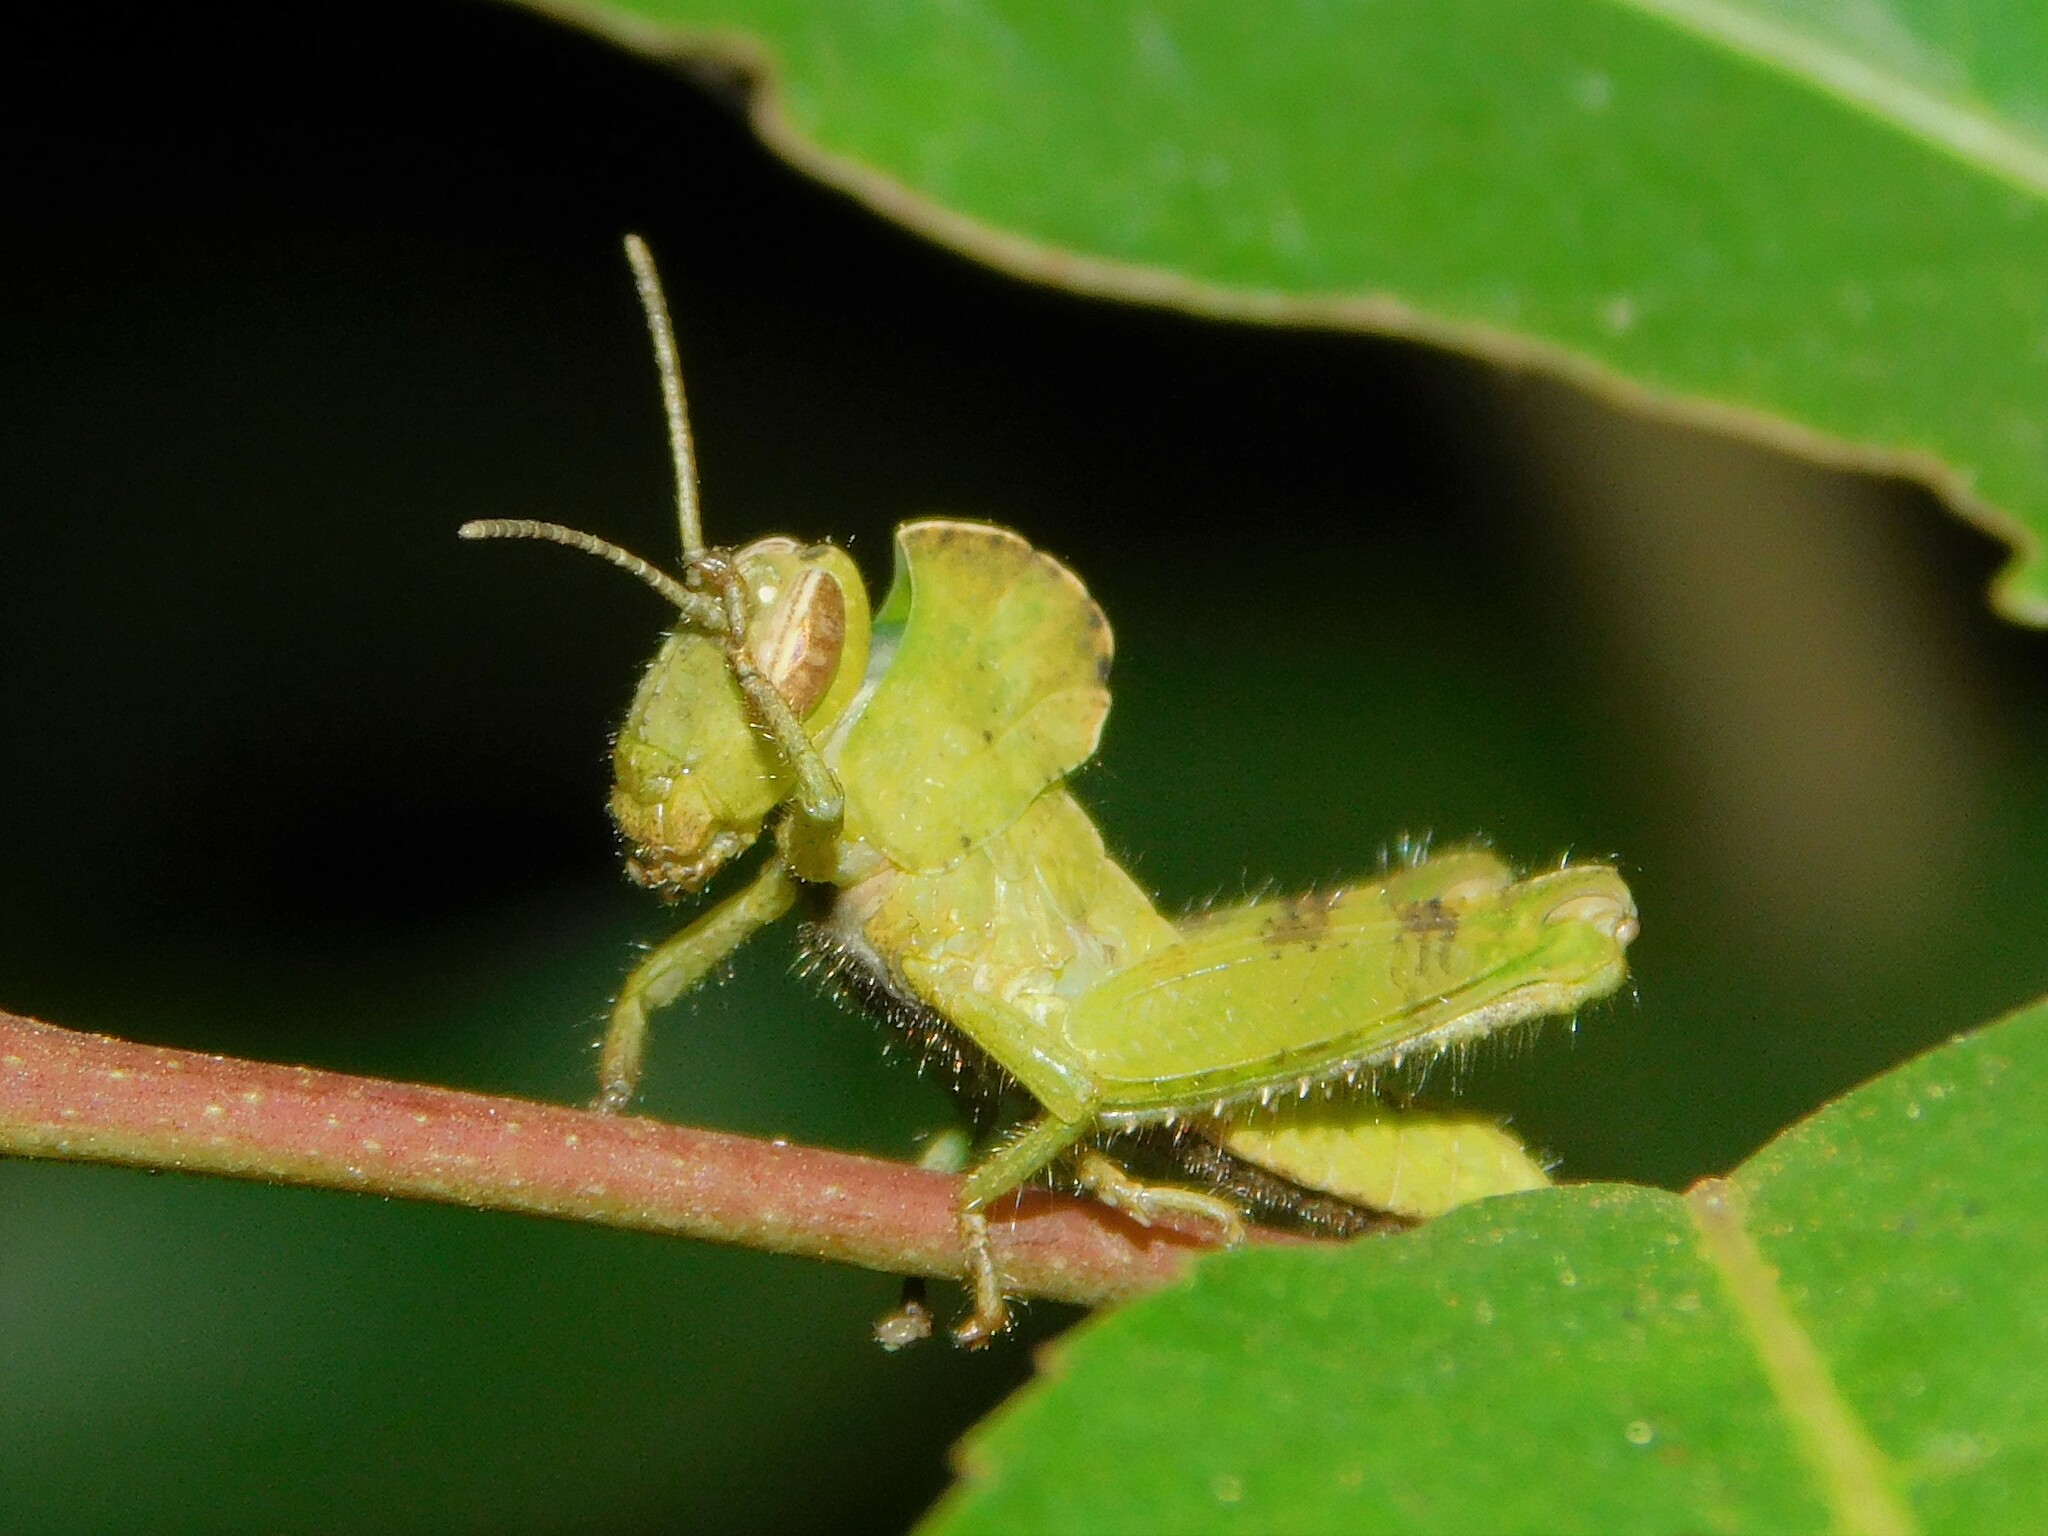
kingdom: Animalia
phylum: Arthropoda
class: Insecta
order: Orthoptera
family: Acrididae
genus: Abisares
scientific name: Abisares viridipenne
